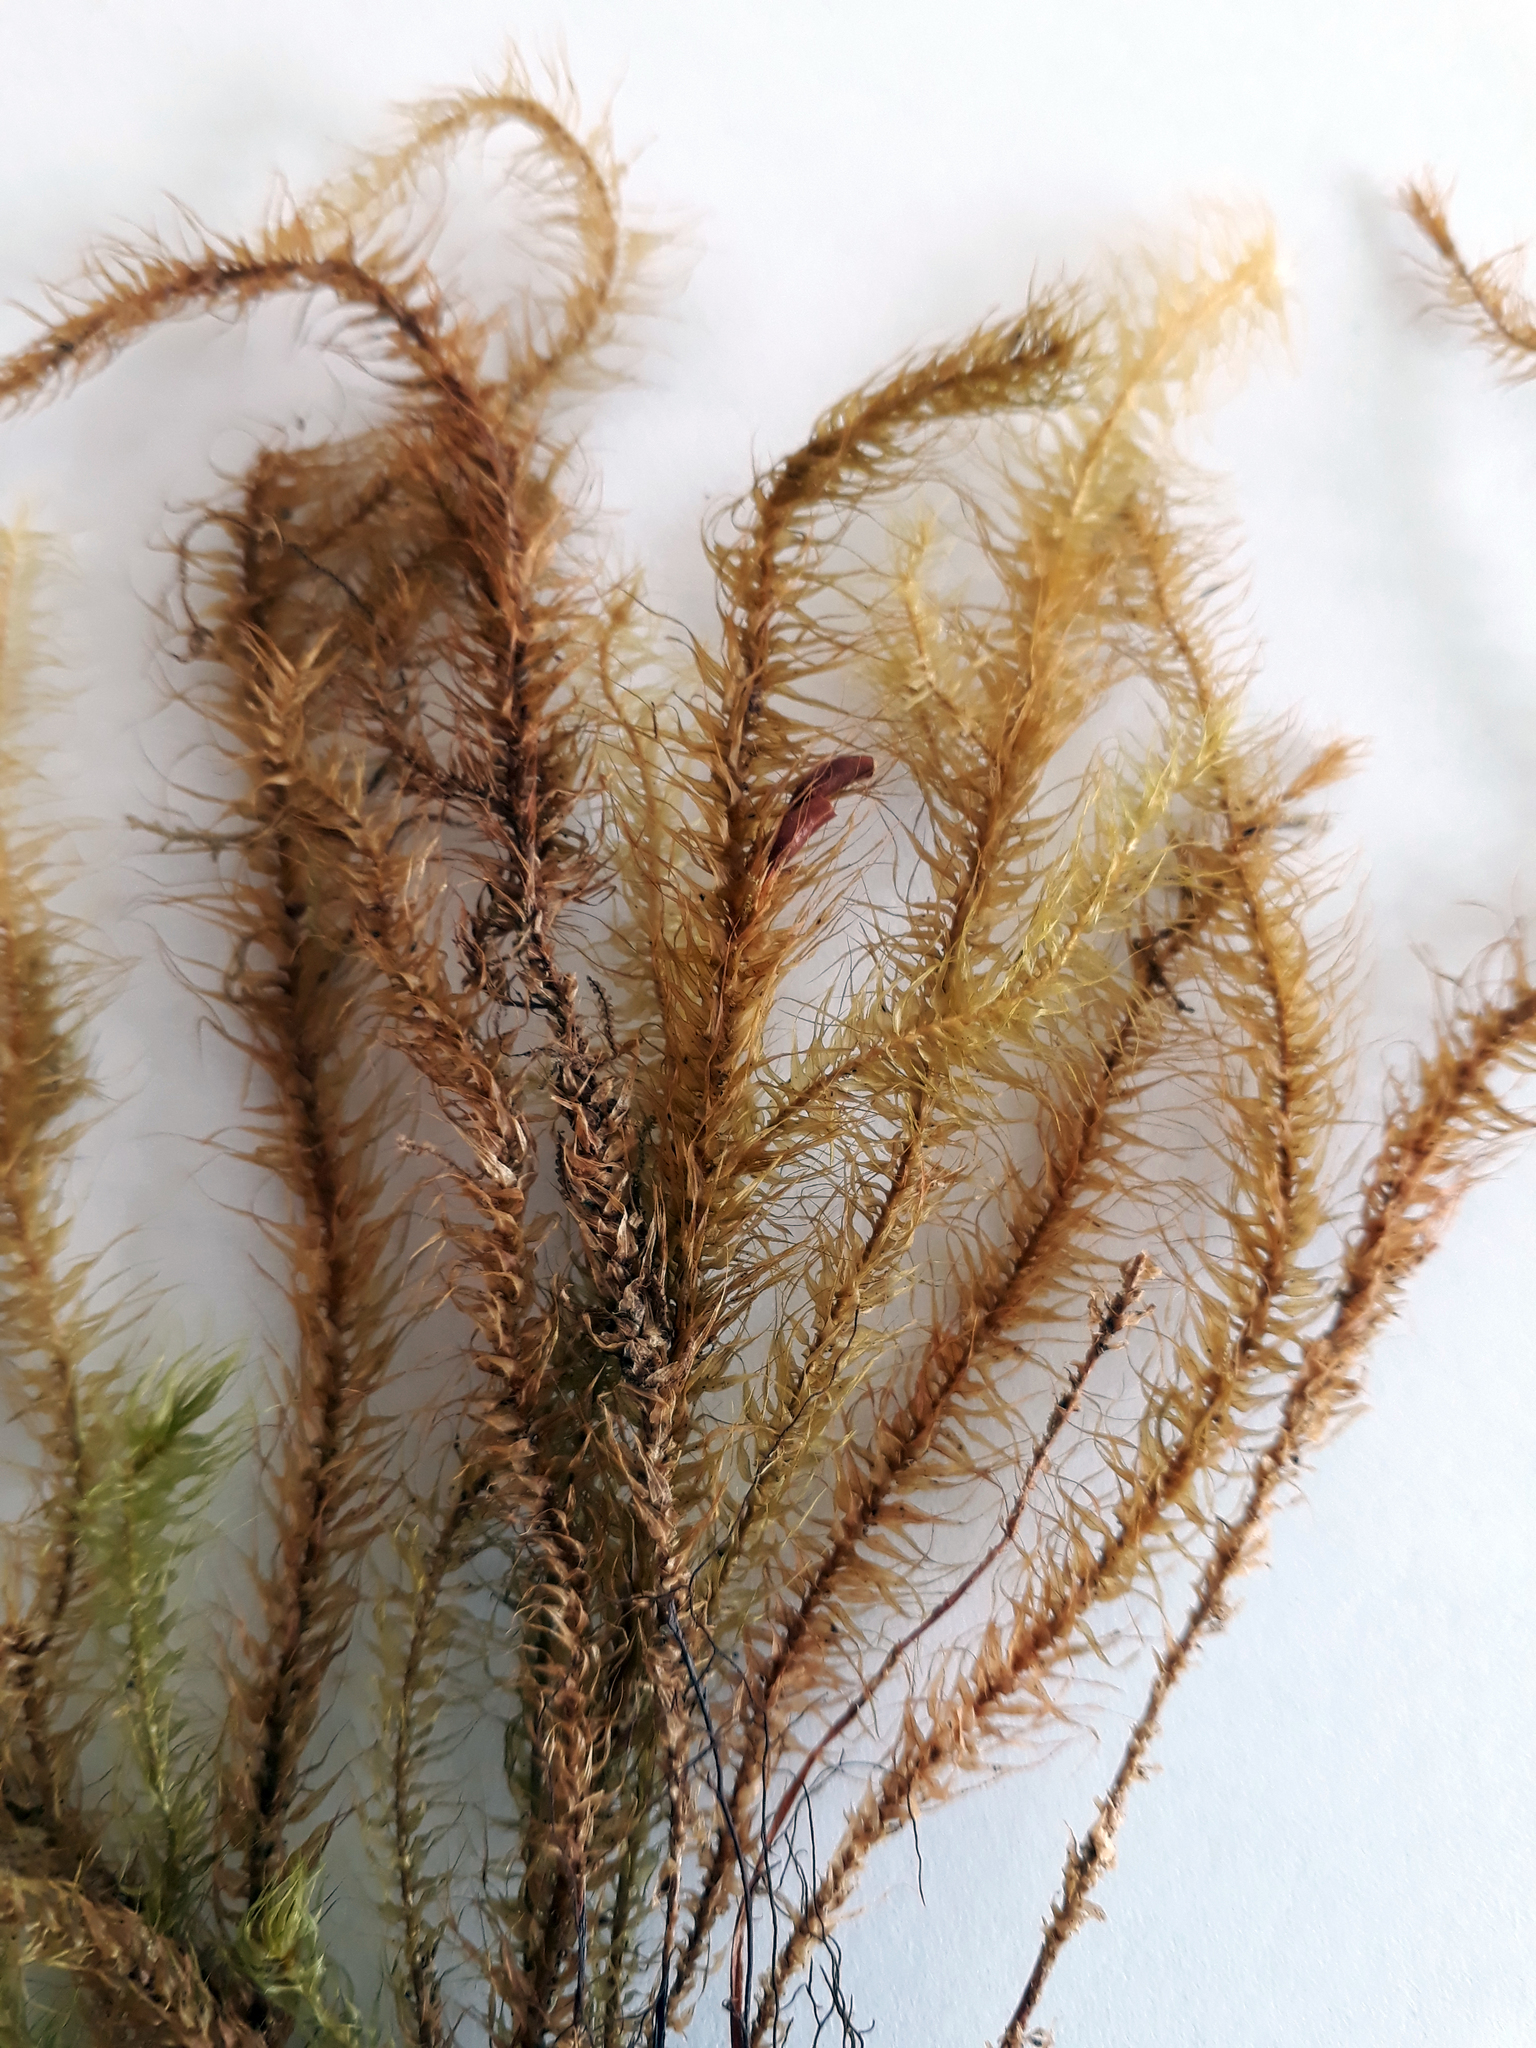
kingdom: Plantae
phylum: Bryophyta
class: Bryopsida
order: Hypnodendrales
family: Spiridentaceae
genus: Spiridens
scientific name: Spiridens reinwardtii
